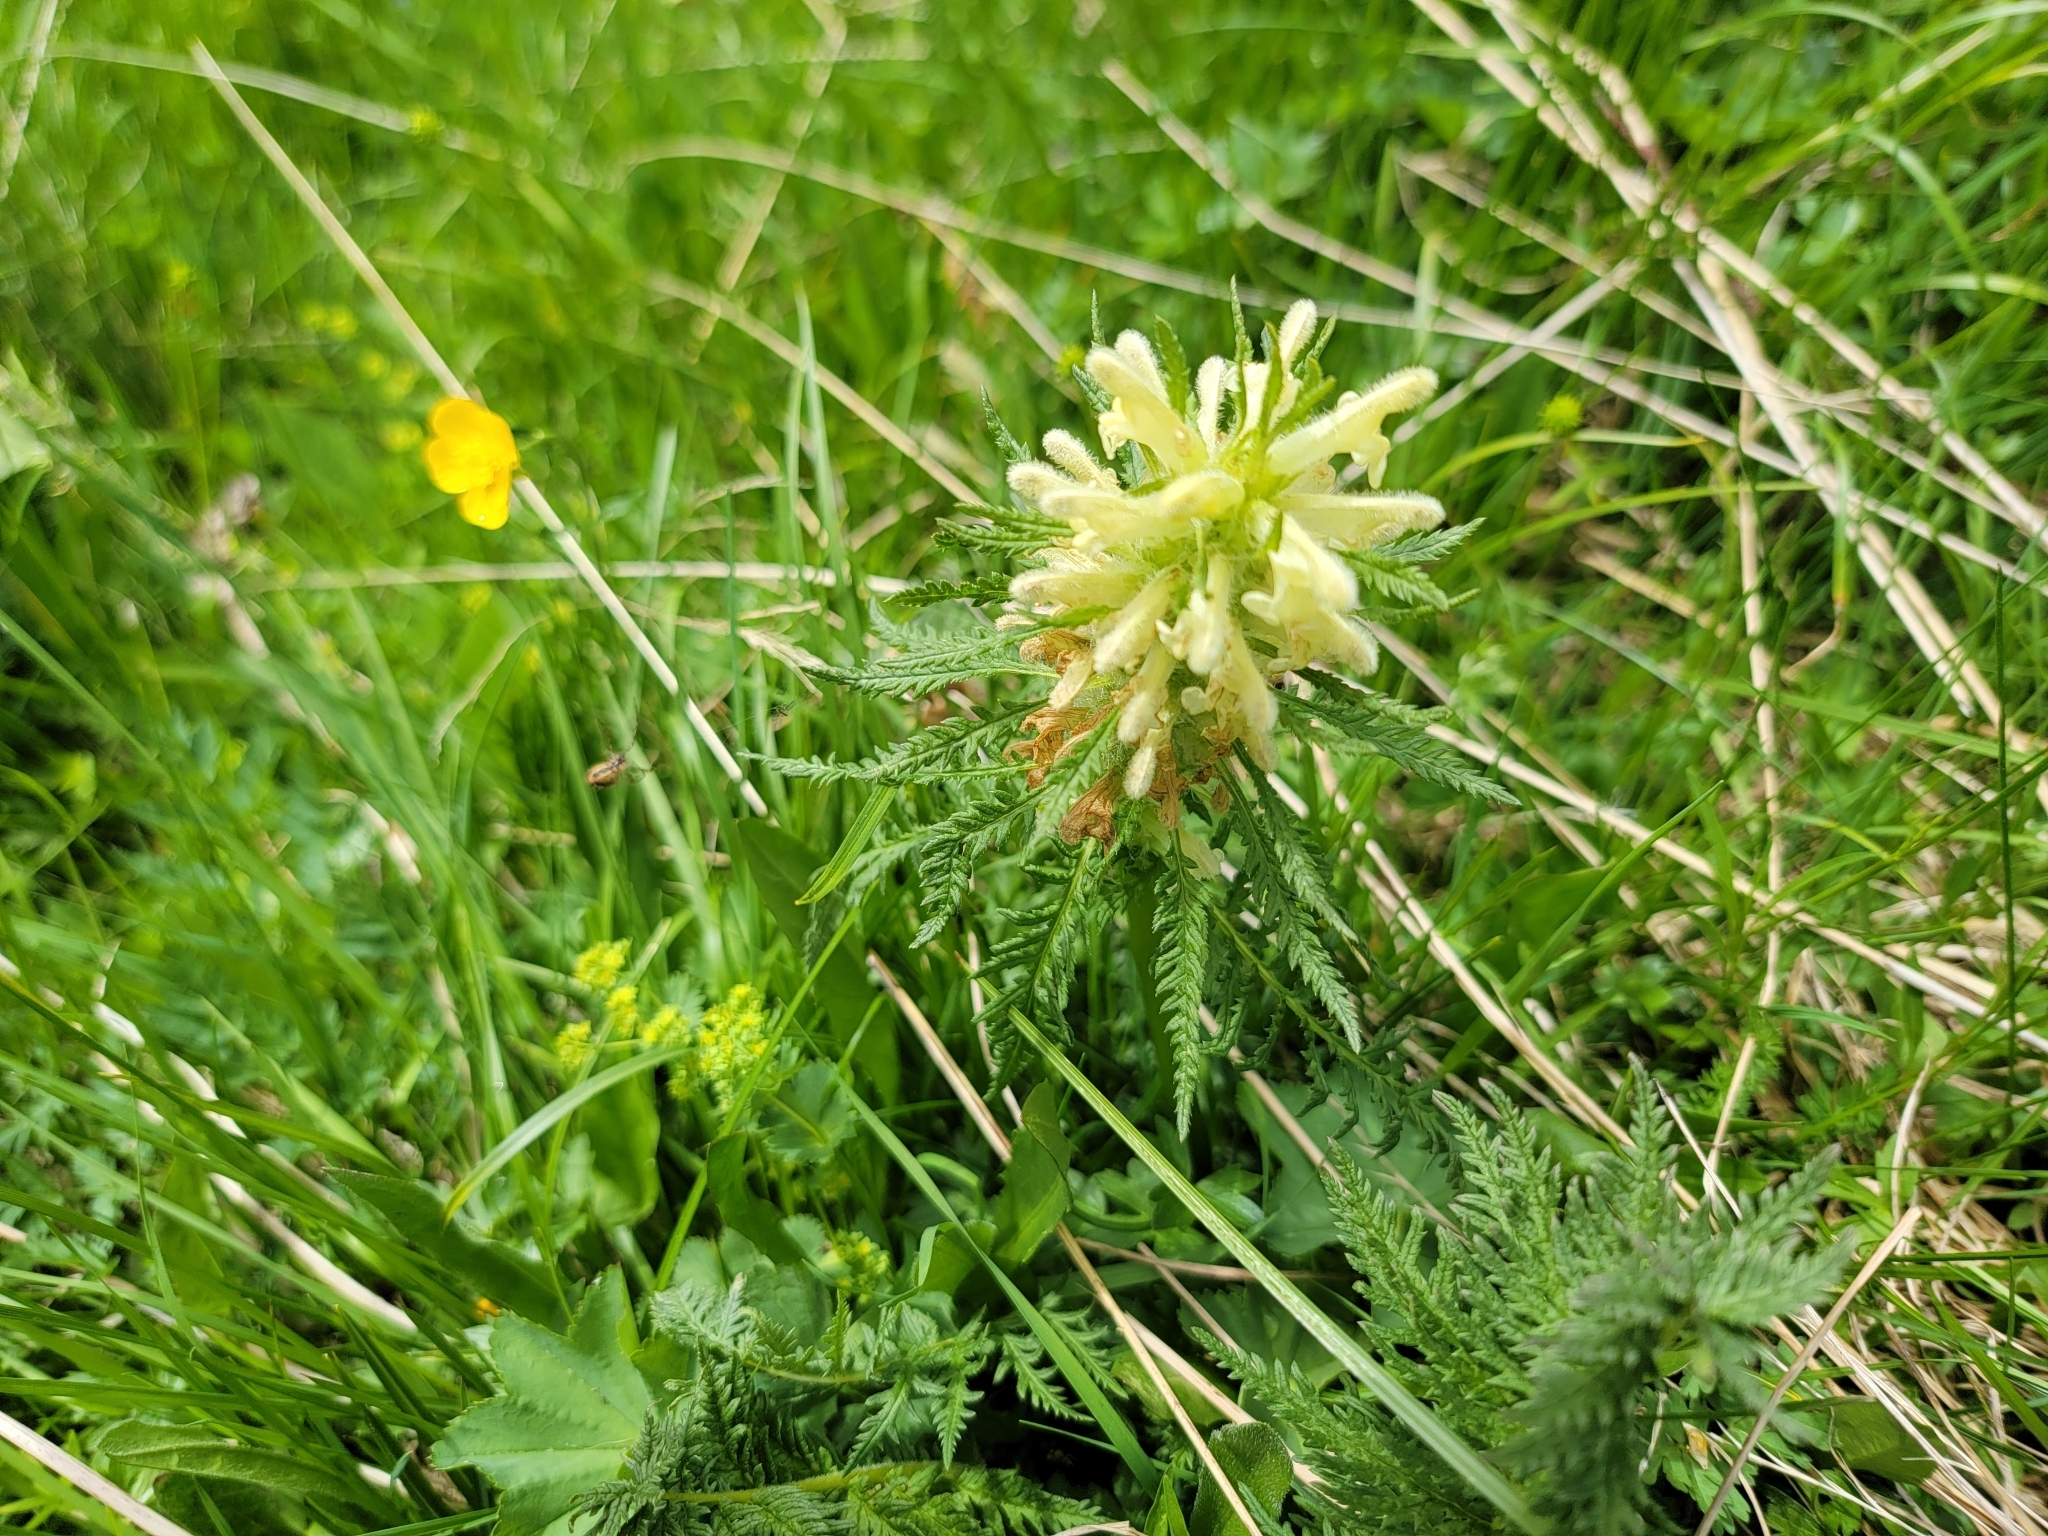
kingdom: Plantae
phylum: Tracheophyta
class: Magnoliopsida
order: Lamiales
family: Orobanchaceae
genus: Pedicularis
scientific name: Pedicularis foliosa
